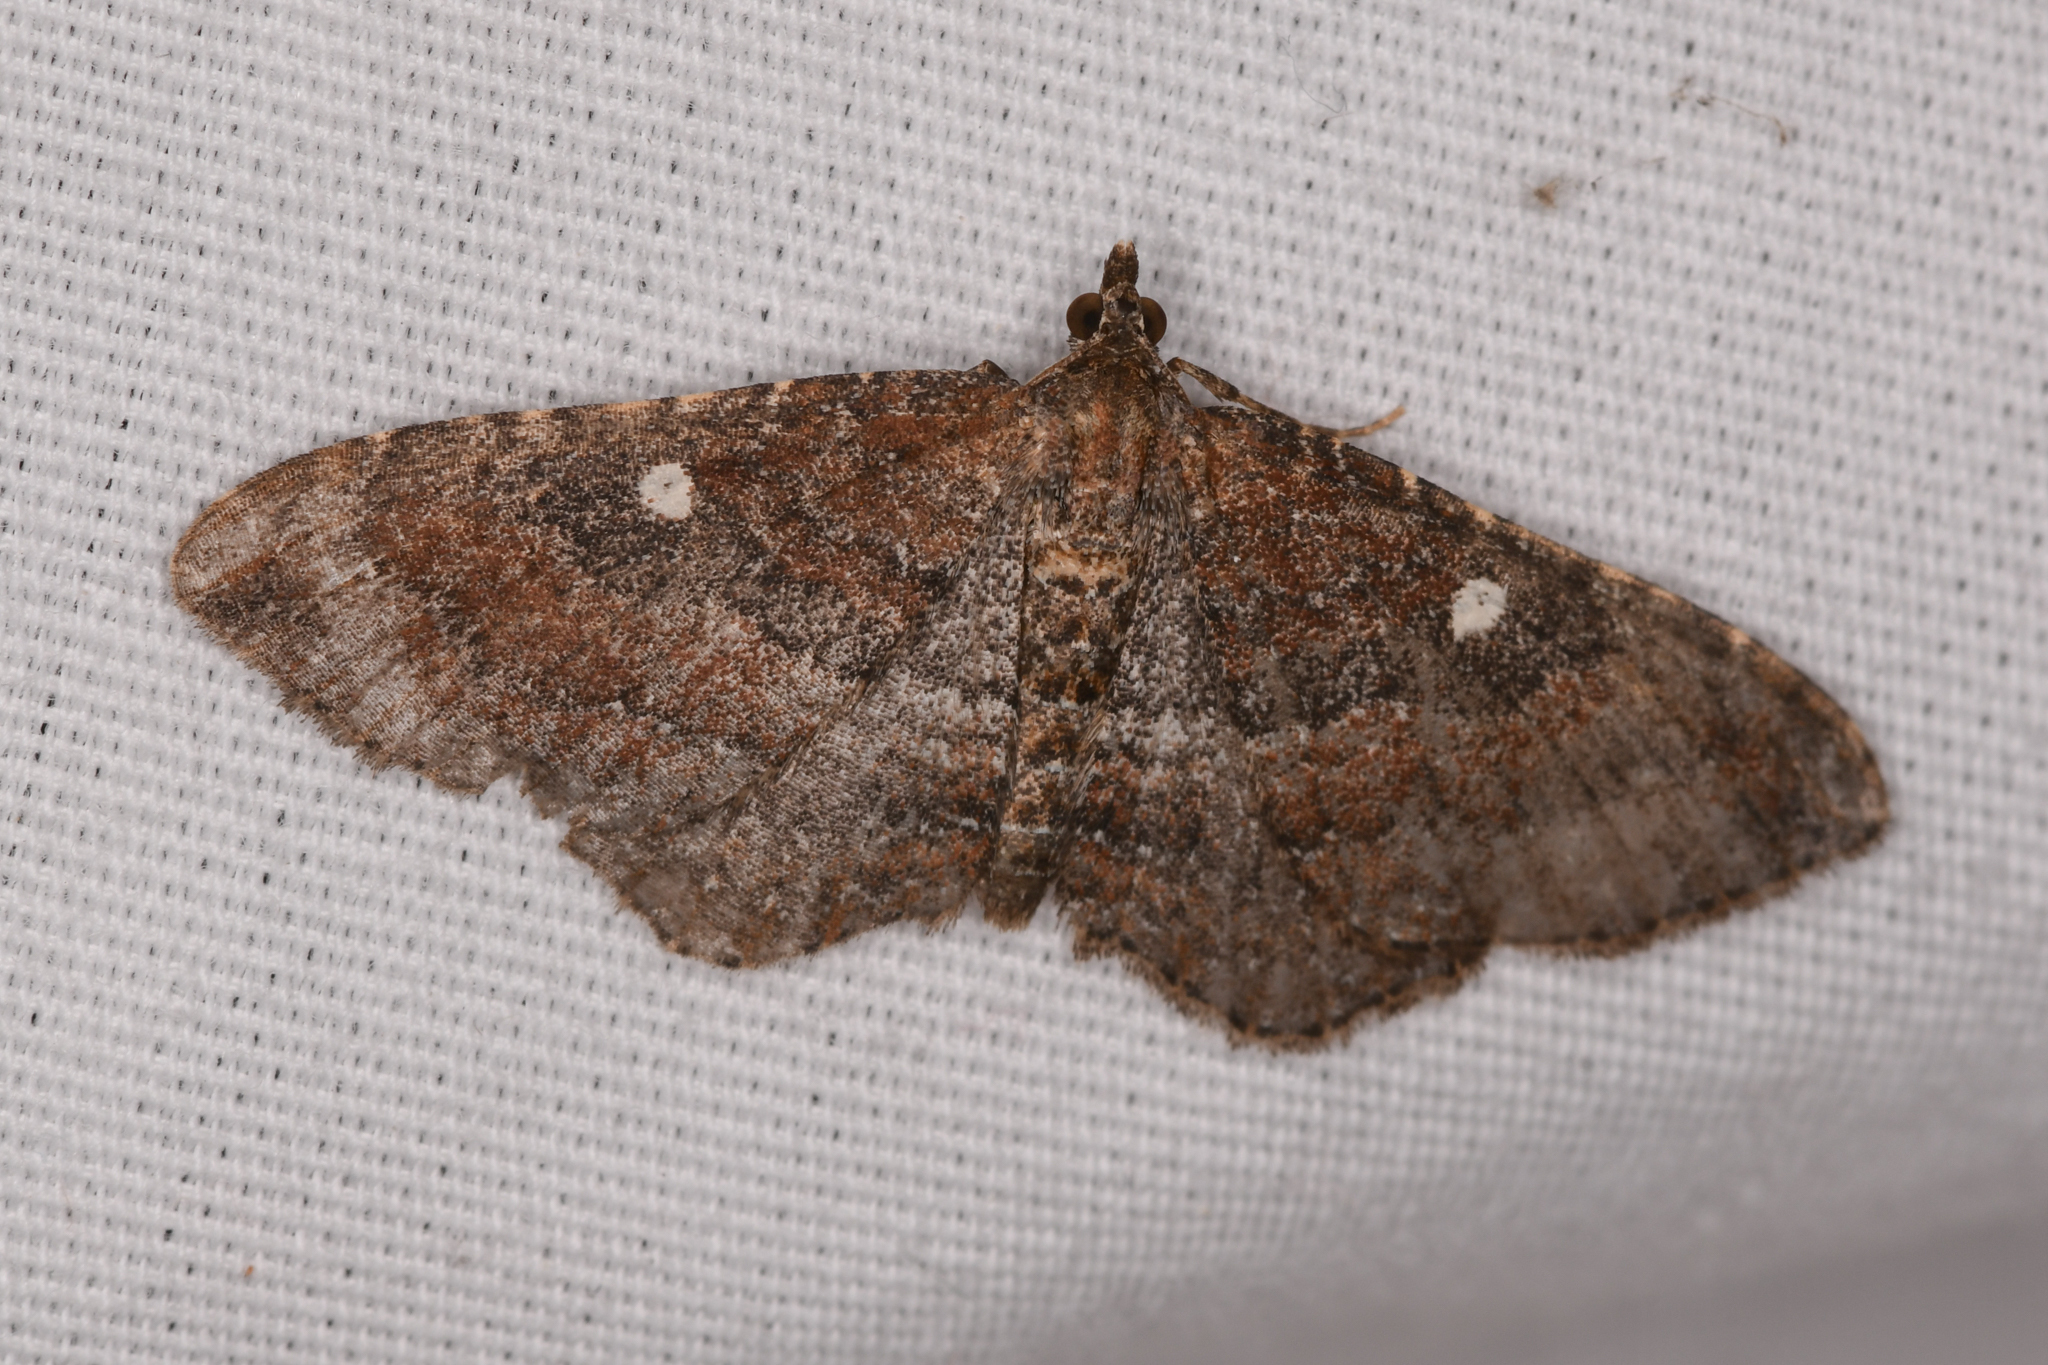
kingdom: Animalia
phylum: Arthropoda
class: Insecta
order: Lepidoptera
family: Geometridae
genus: Orthonama
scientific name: Orthonama obstipata
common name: The gem
